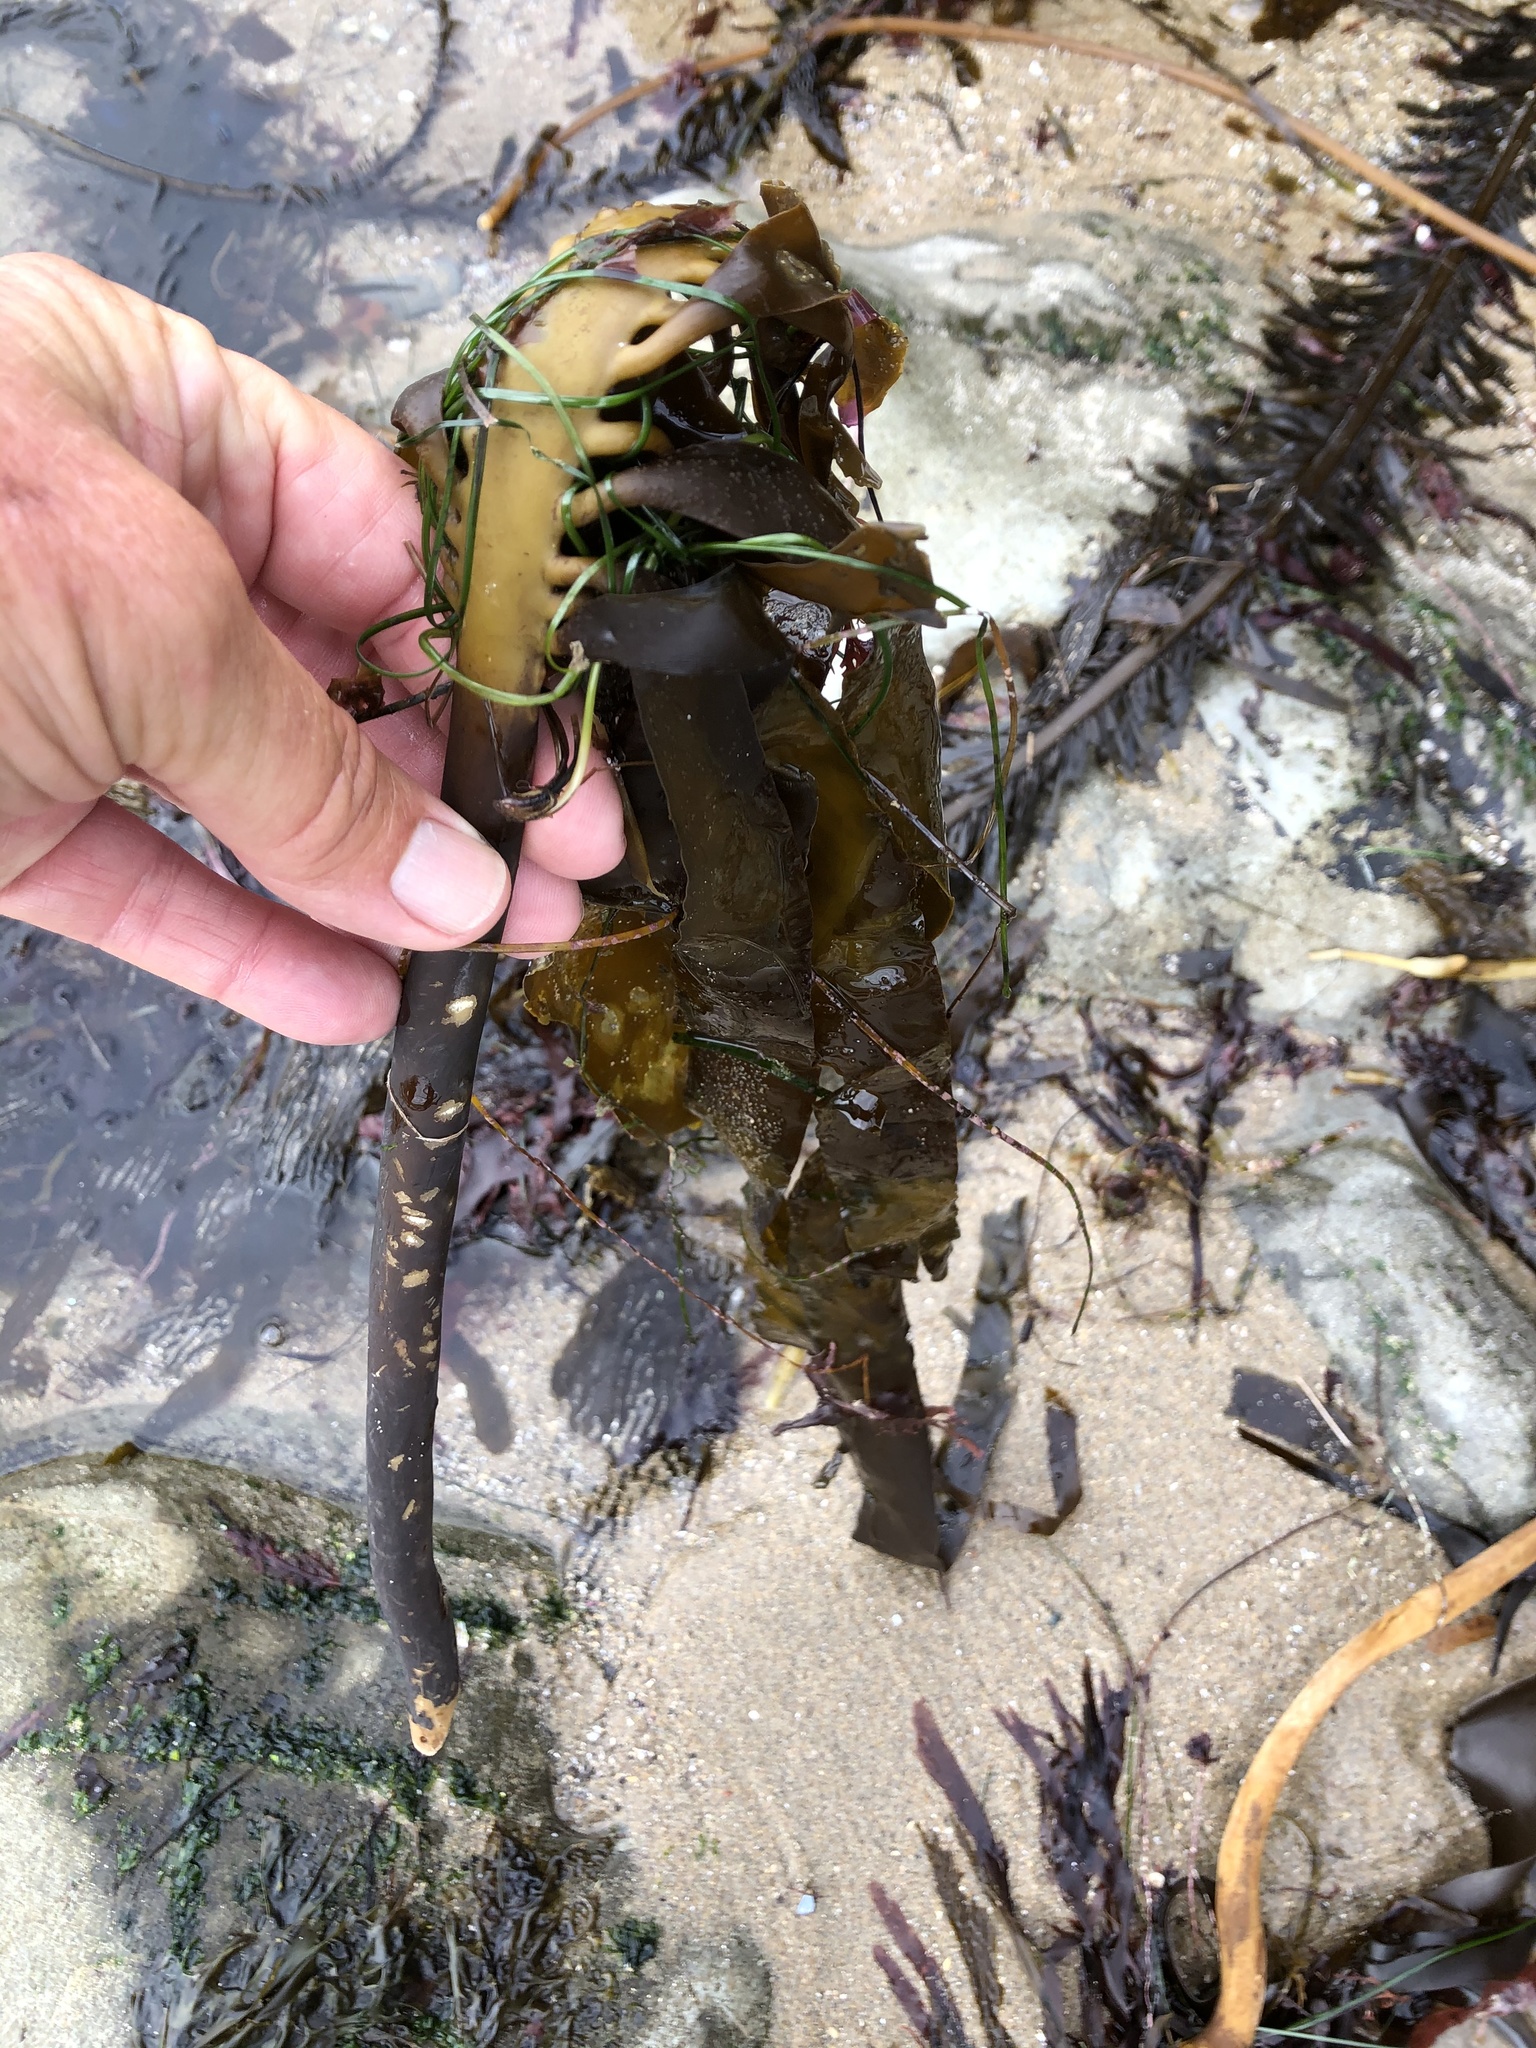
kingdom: Chromista
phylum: Ochrophyta
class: Phaeophyceae
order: Laminariales
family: Alariaceae
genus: Pterygophora
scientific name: Pterygophora californica
